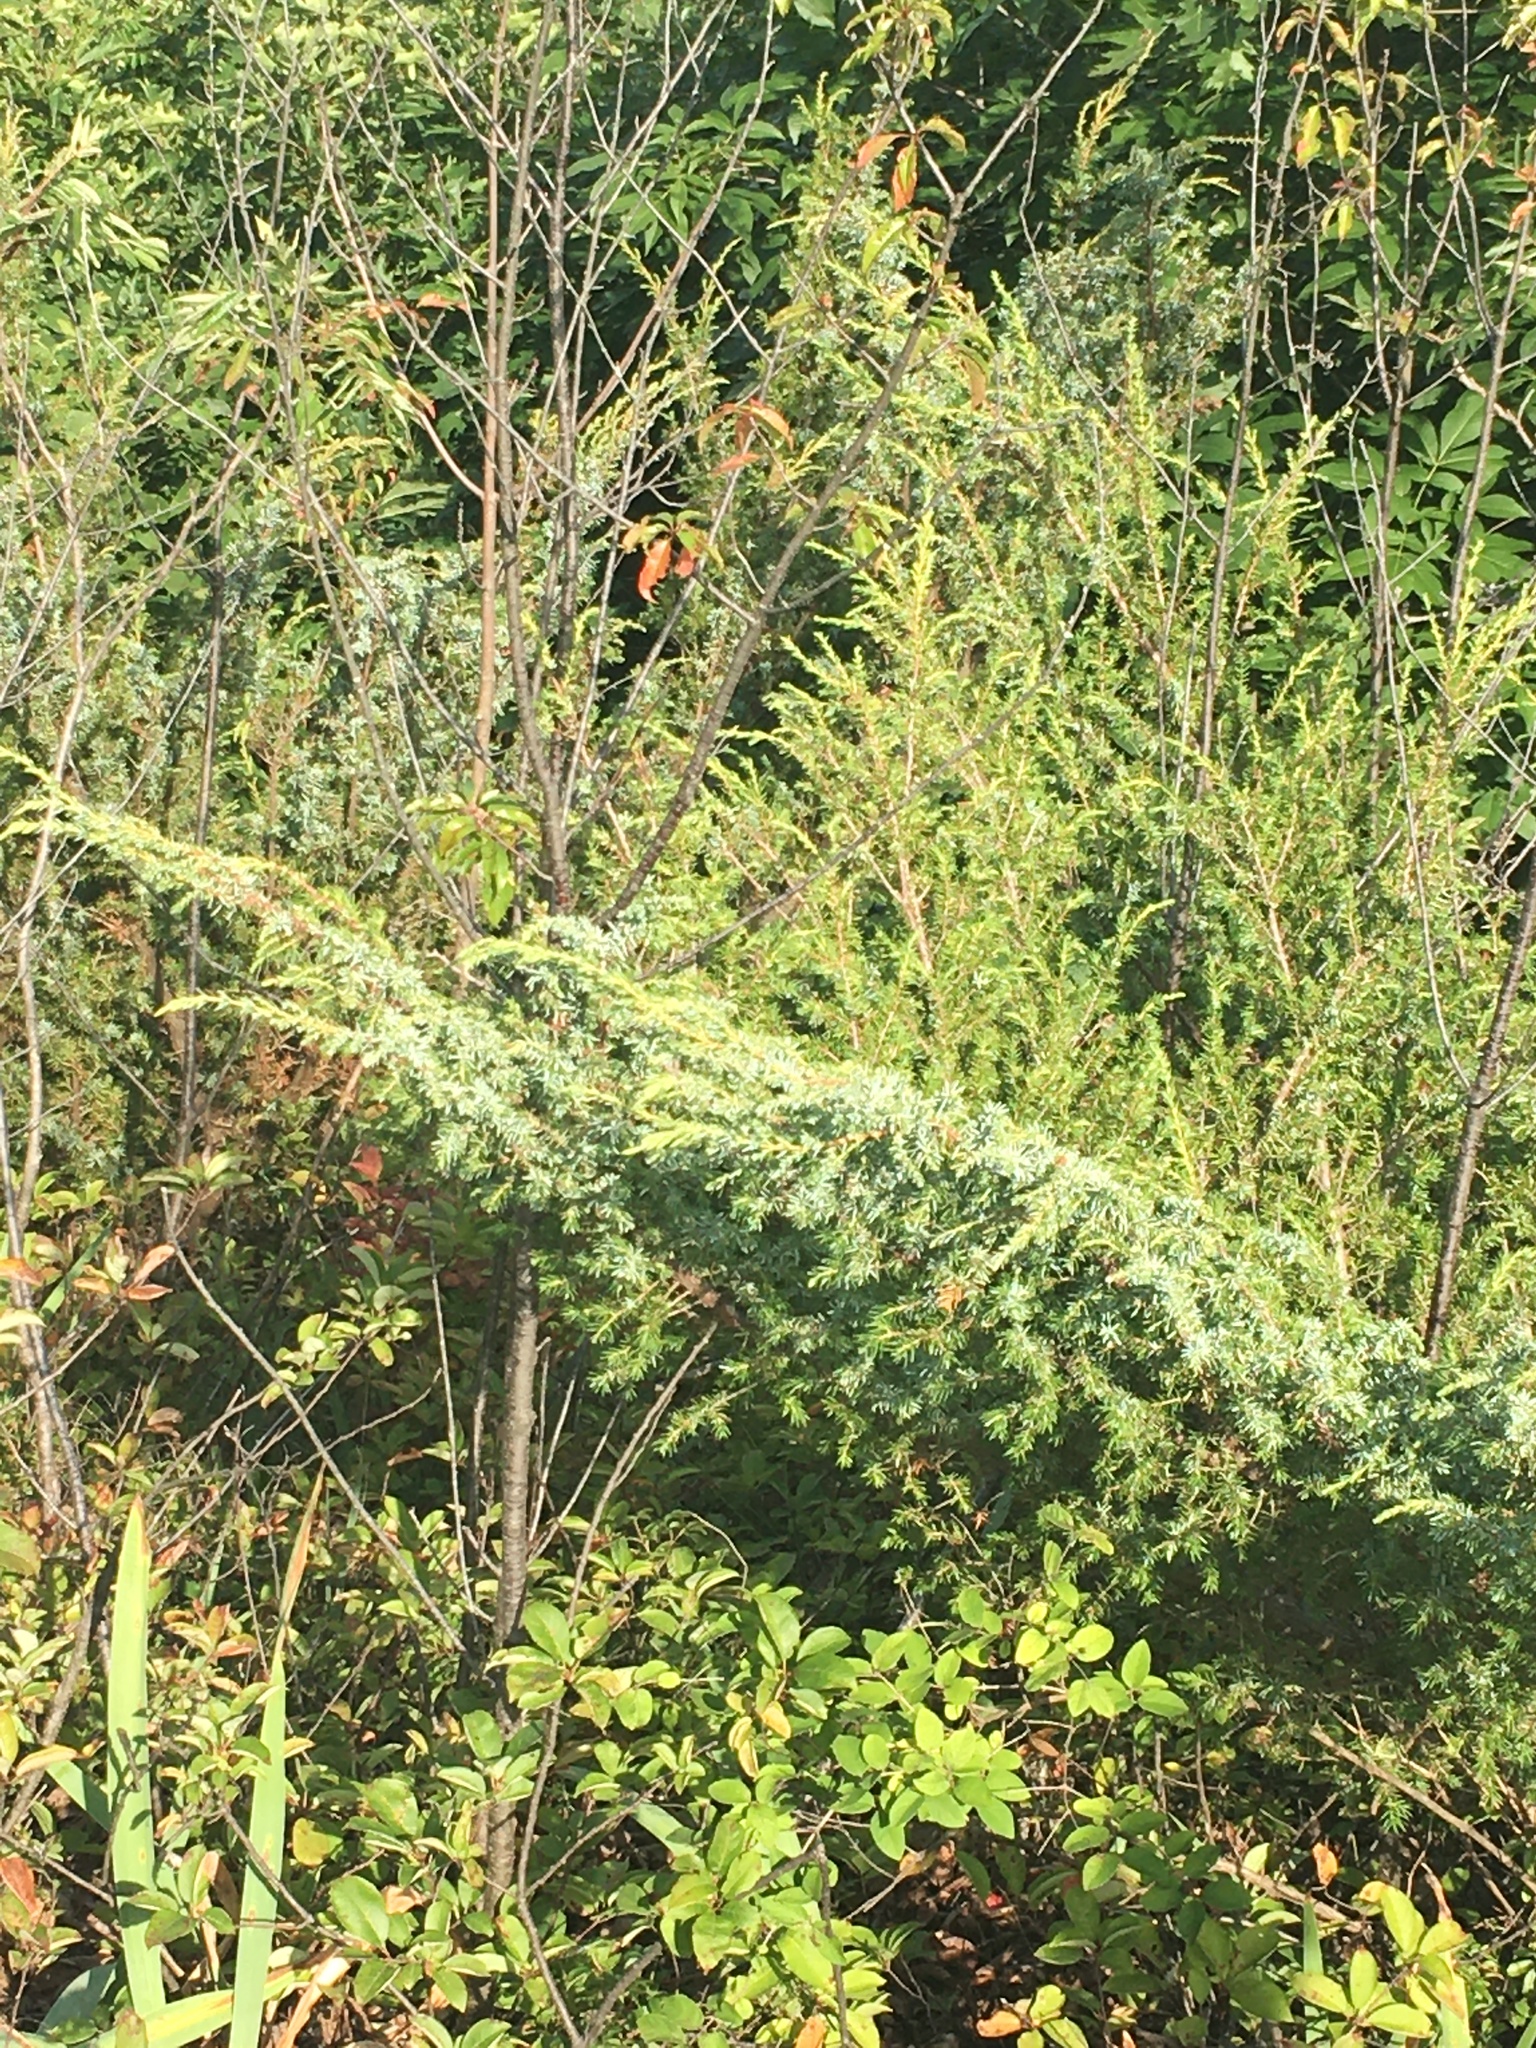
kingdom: Plantae
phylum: Tracheophyta
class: Pinopsida
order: Pinales
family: Cupressaceae
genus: Juniperus
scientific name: Juniperus communis
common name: Common juniper
